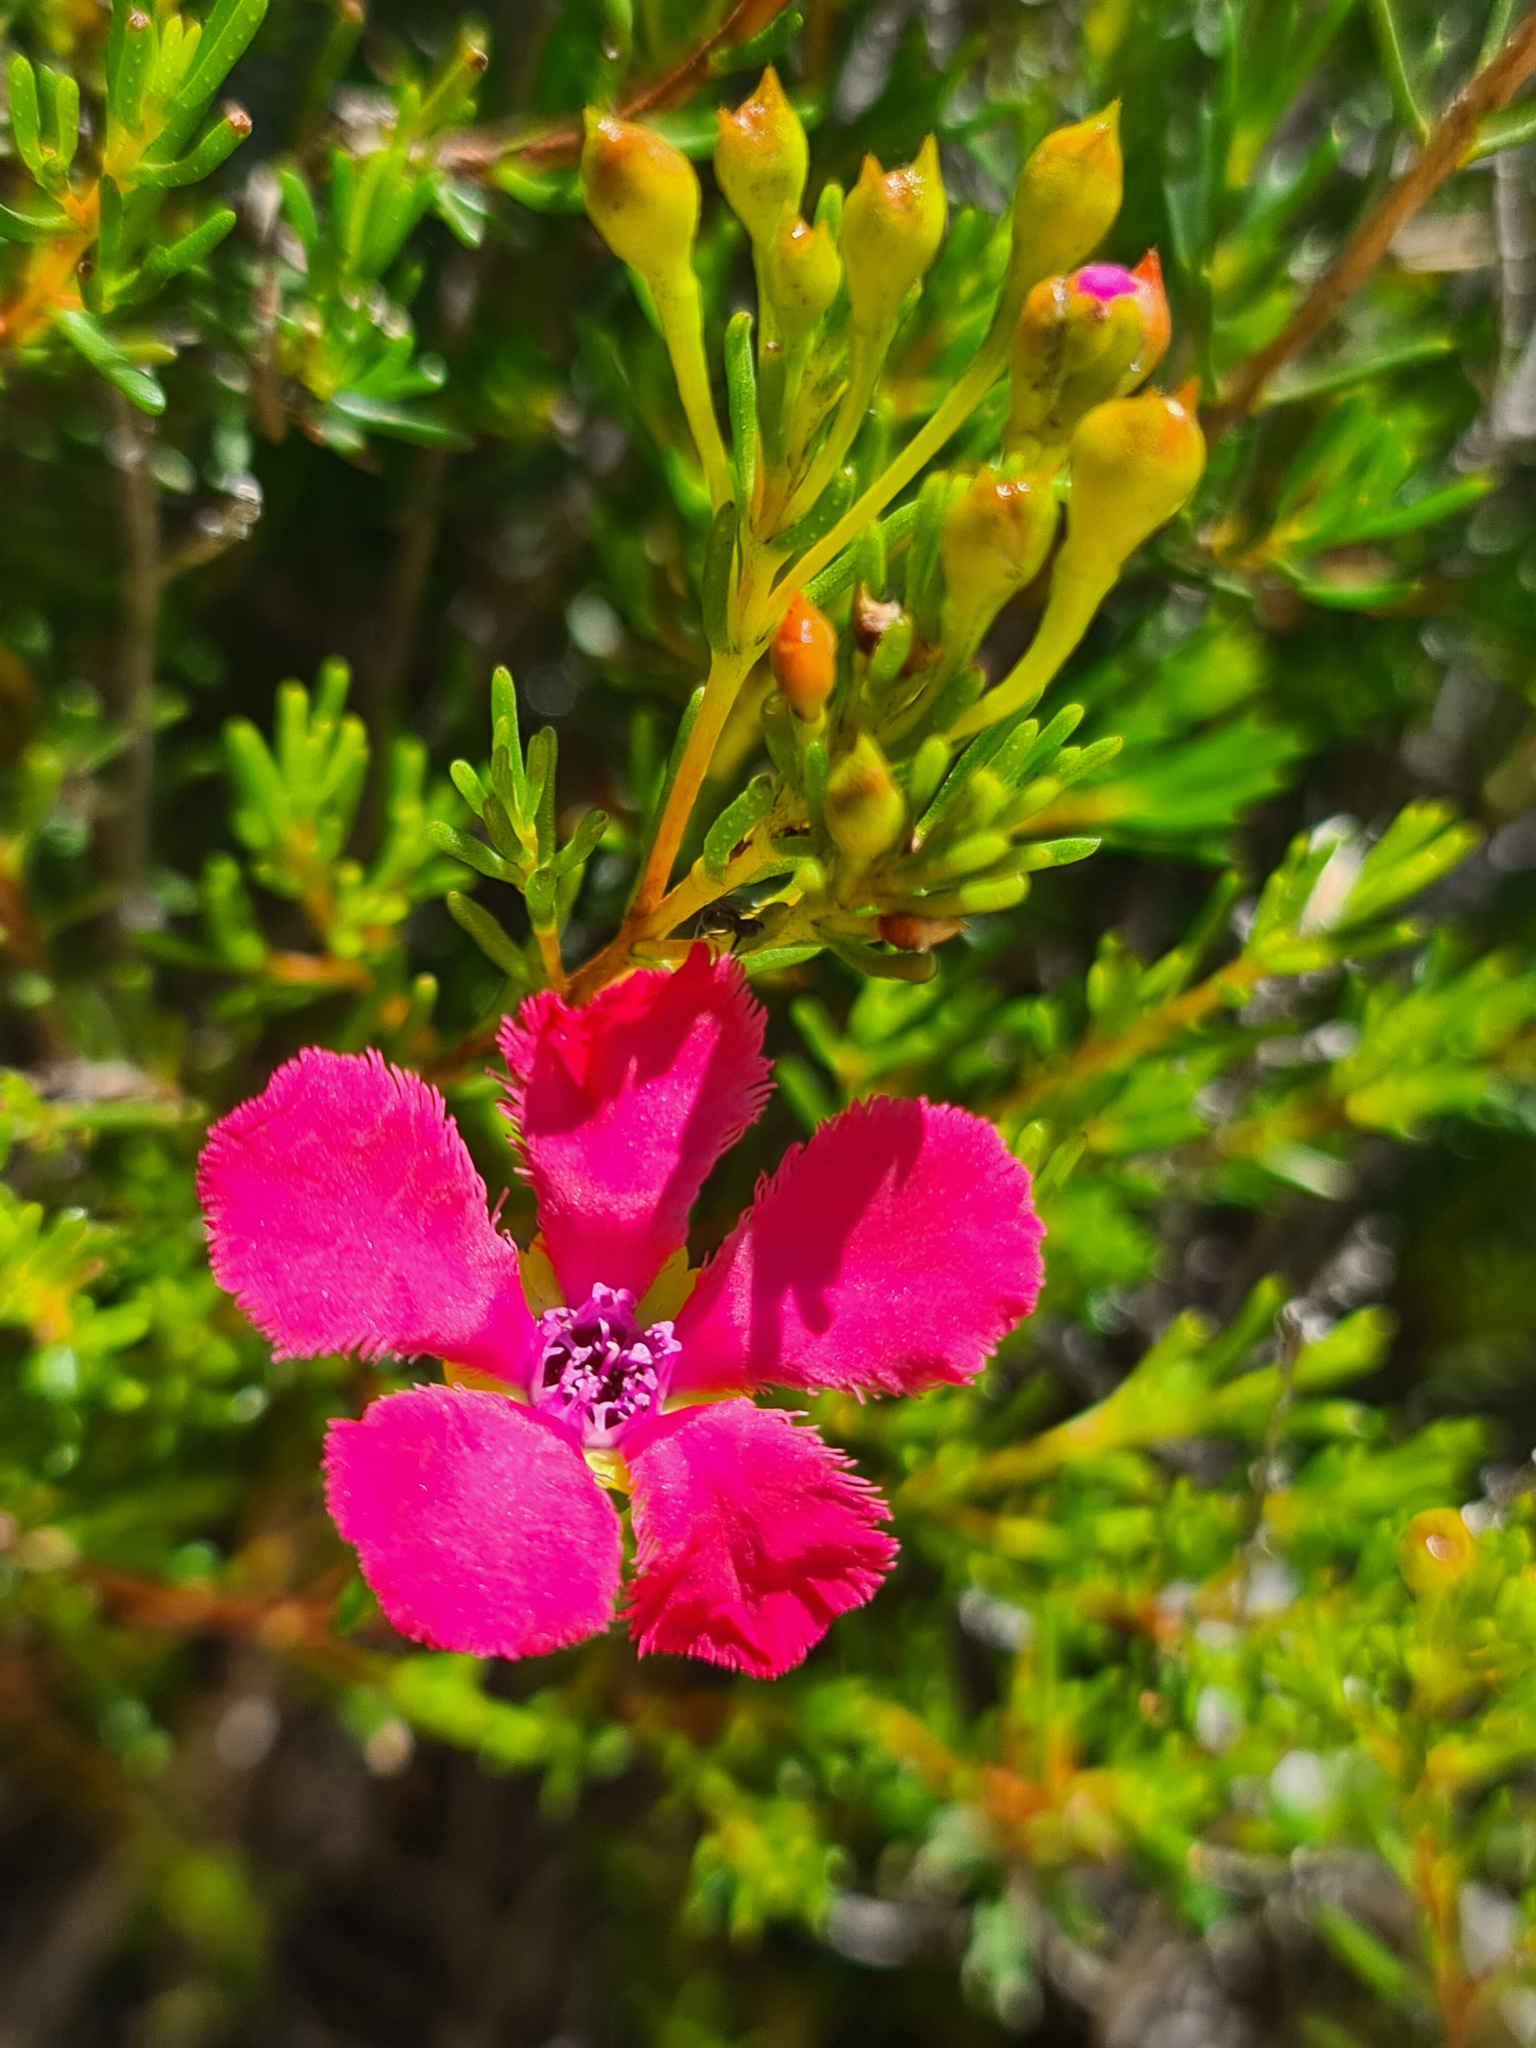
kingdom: Plantae
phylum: Tracheophyta
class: Magnoliopsida
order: Myrtales
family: Myrtaceae
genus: Pileanthus
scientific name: Pileanthus filifolius
